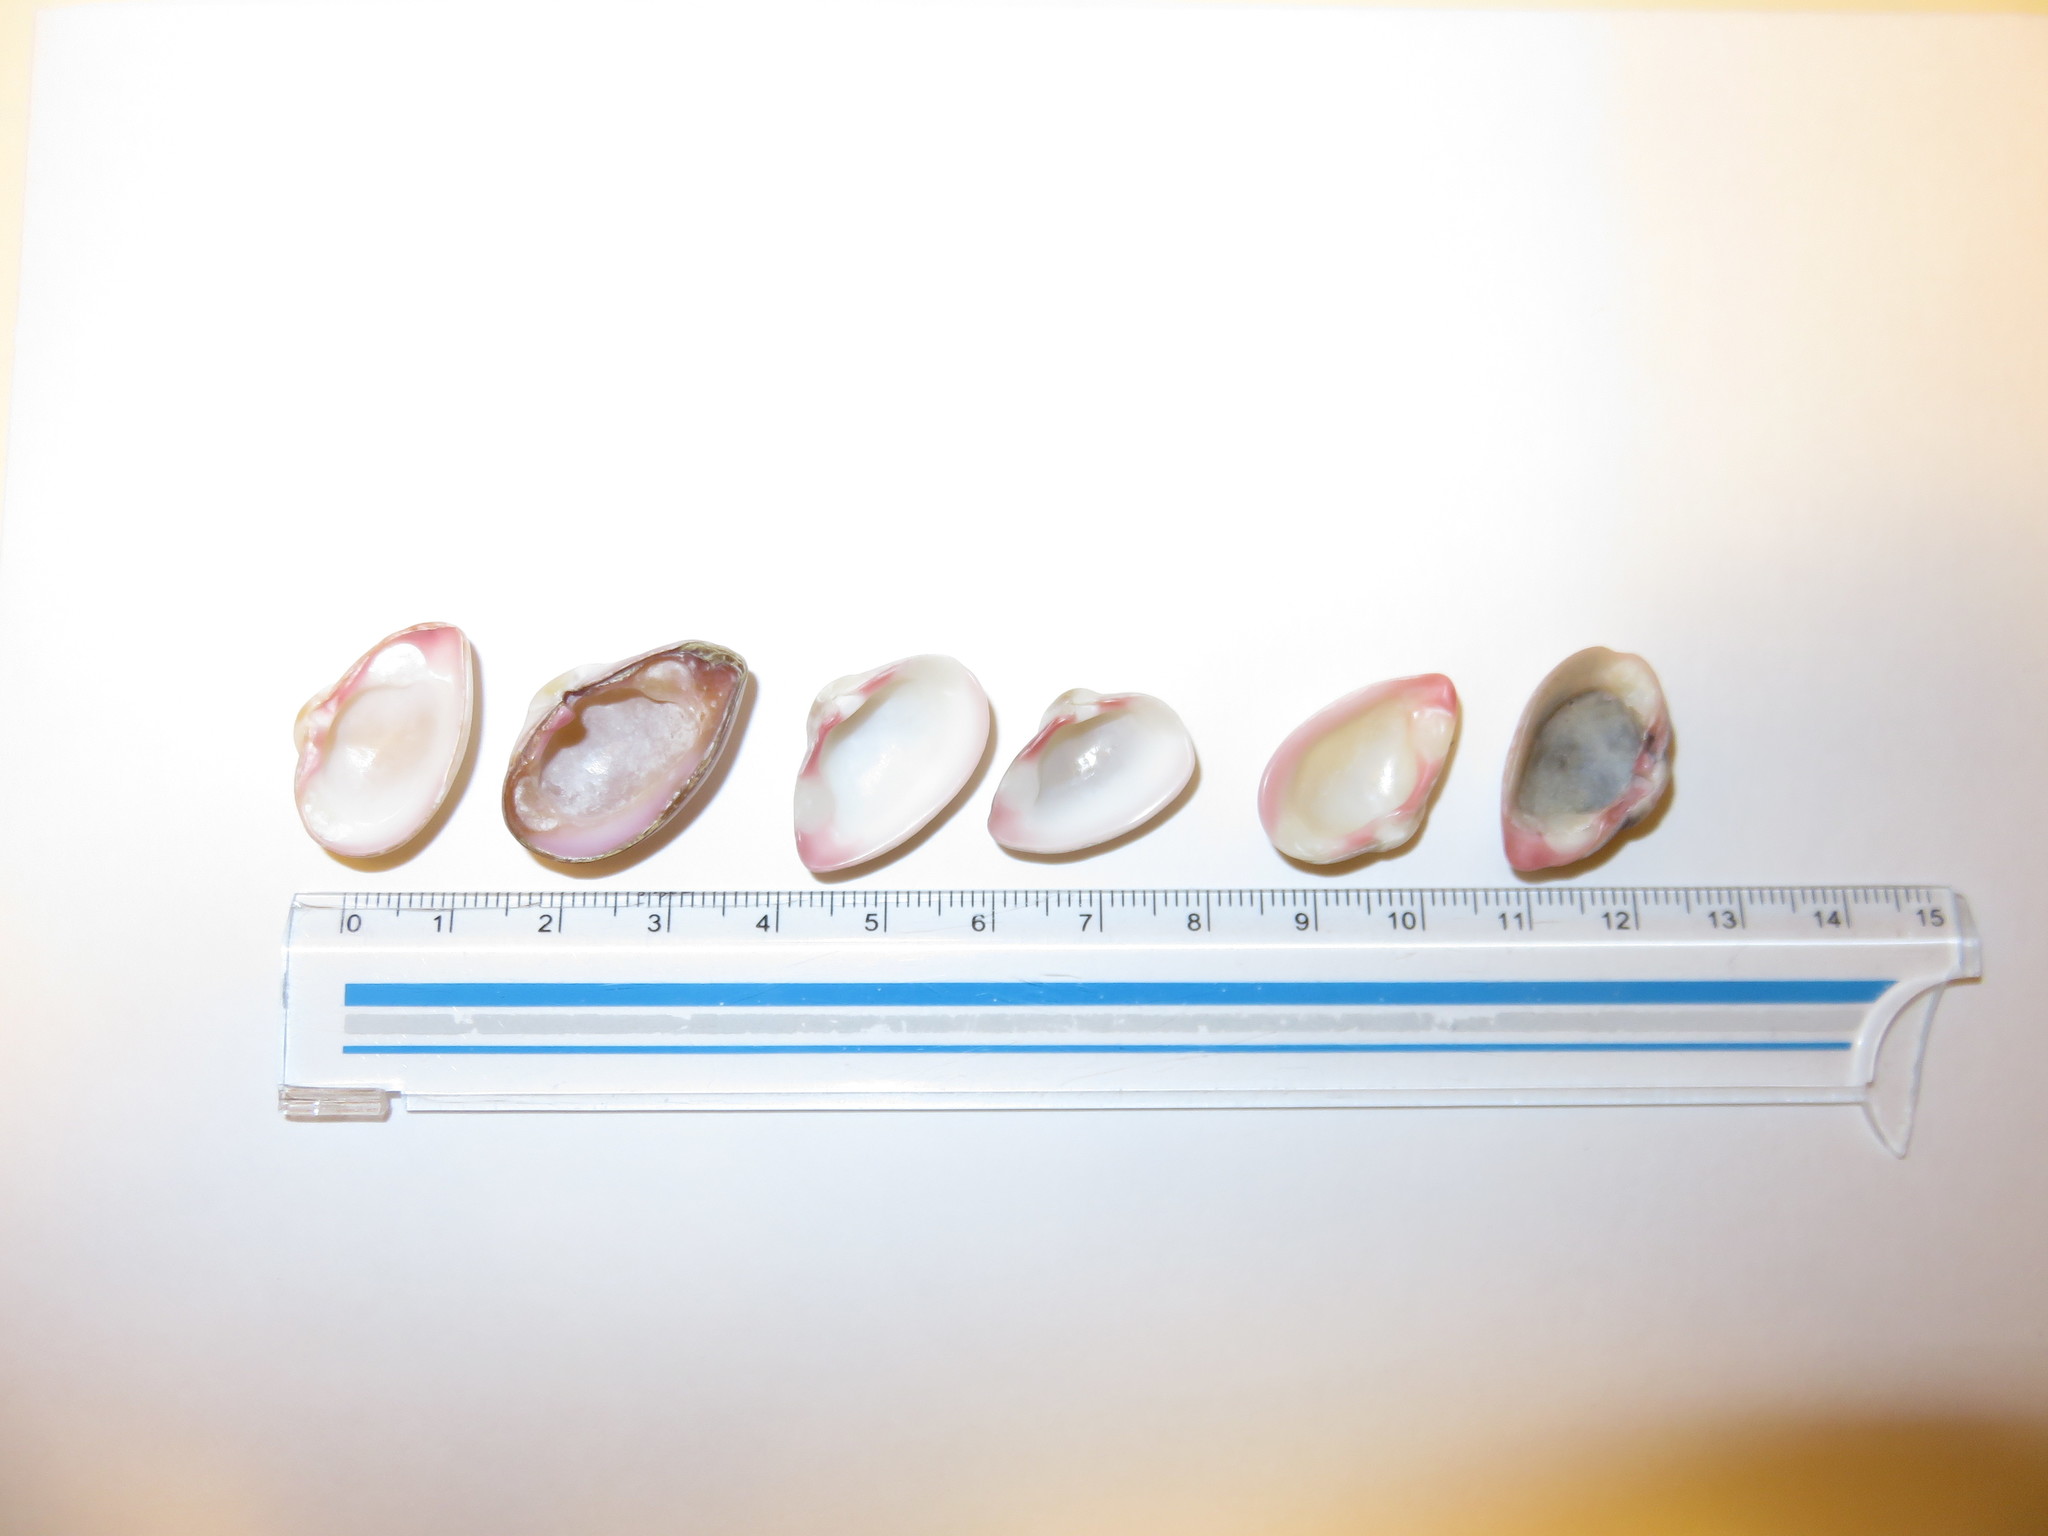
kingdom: Animalia
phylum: Mollusca
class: Bivalvia
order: Myida
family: Corbulidae
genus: Corbula
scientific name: Corbula erythrodon
